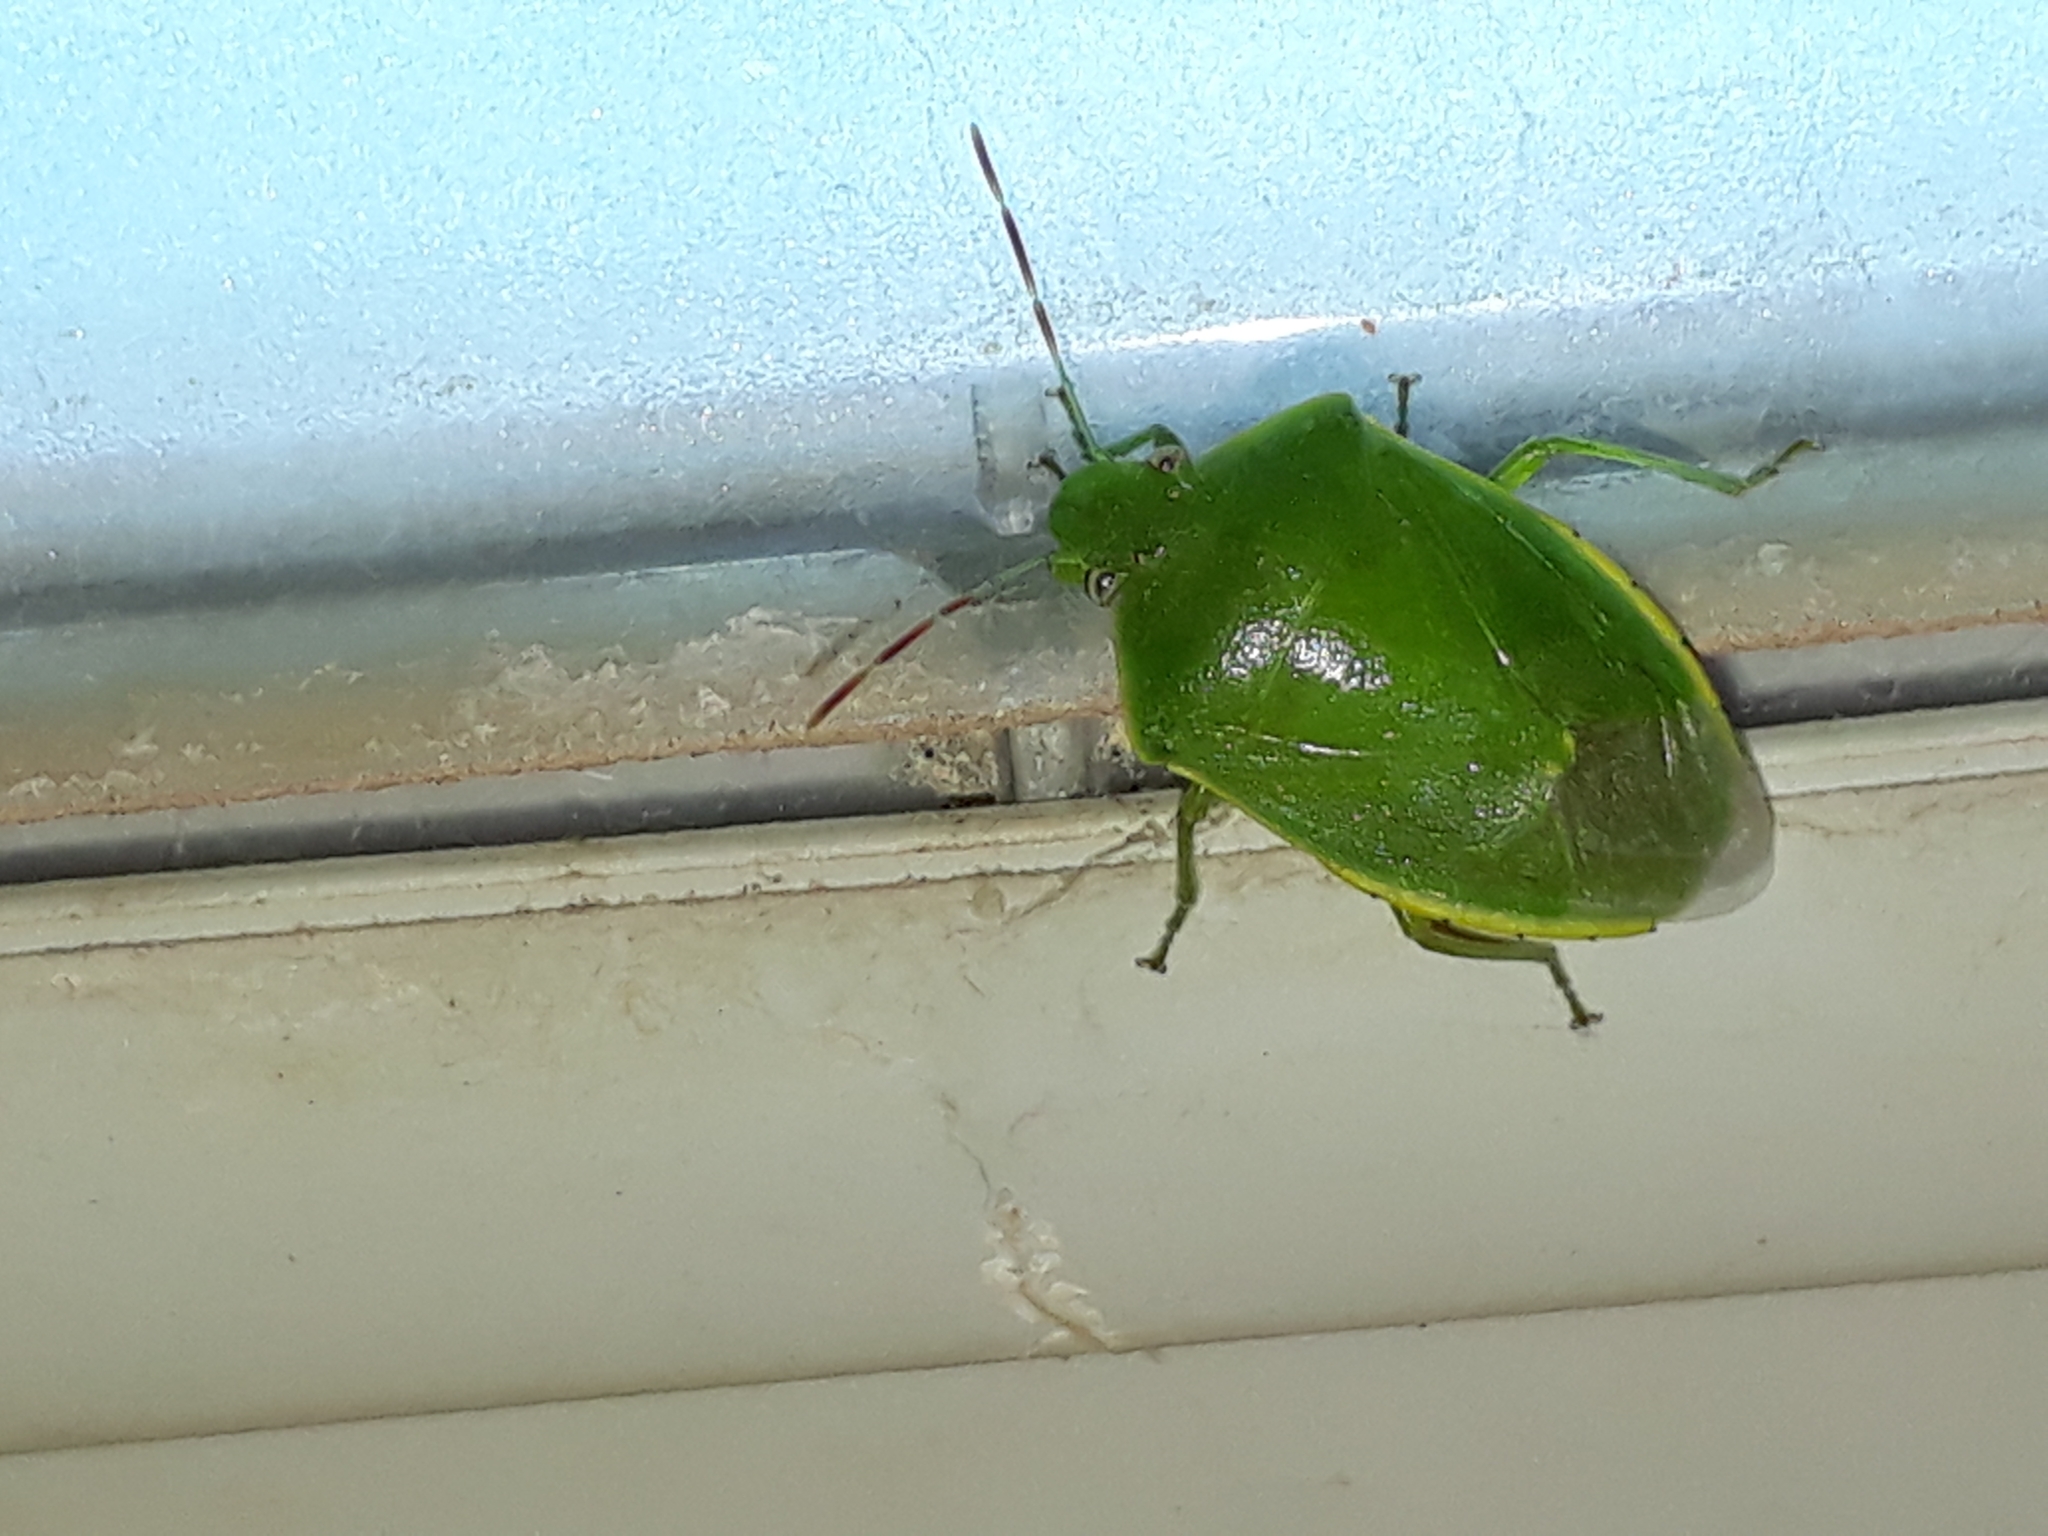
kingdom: Animalia
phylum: Arthropoda
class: Insecta
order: Hemiptera
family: Pentatomidae
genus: Acrosternum
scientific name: Acrosternum heegeri
